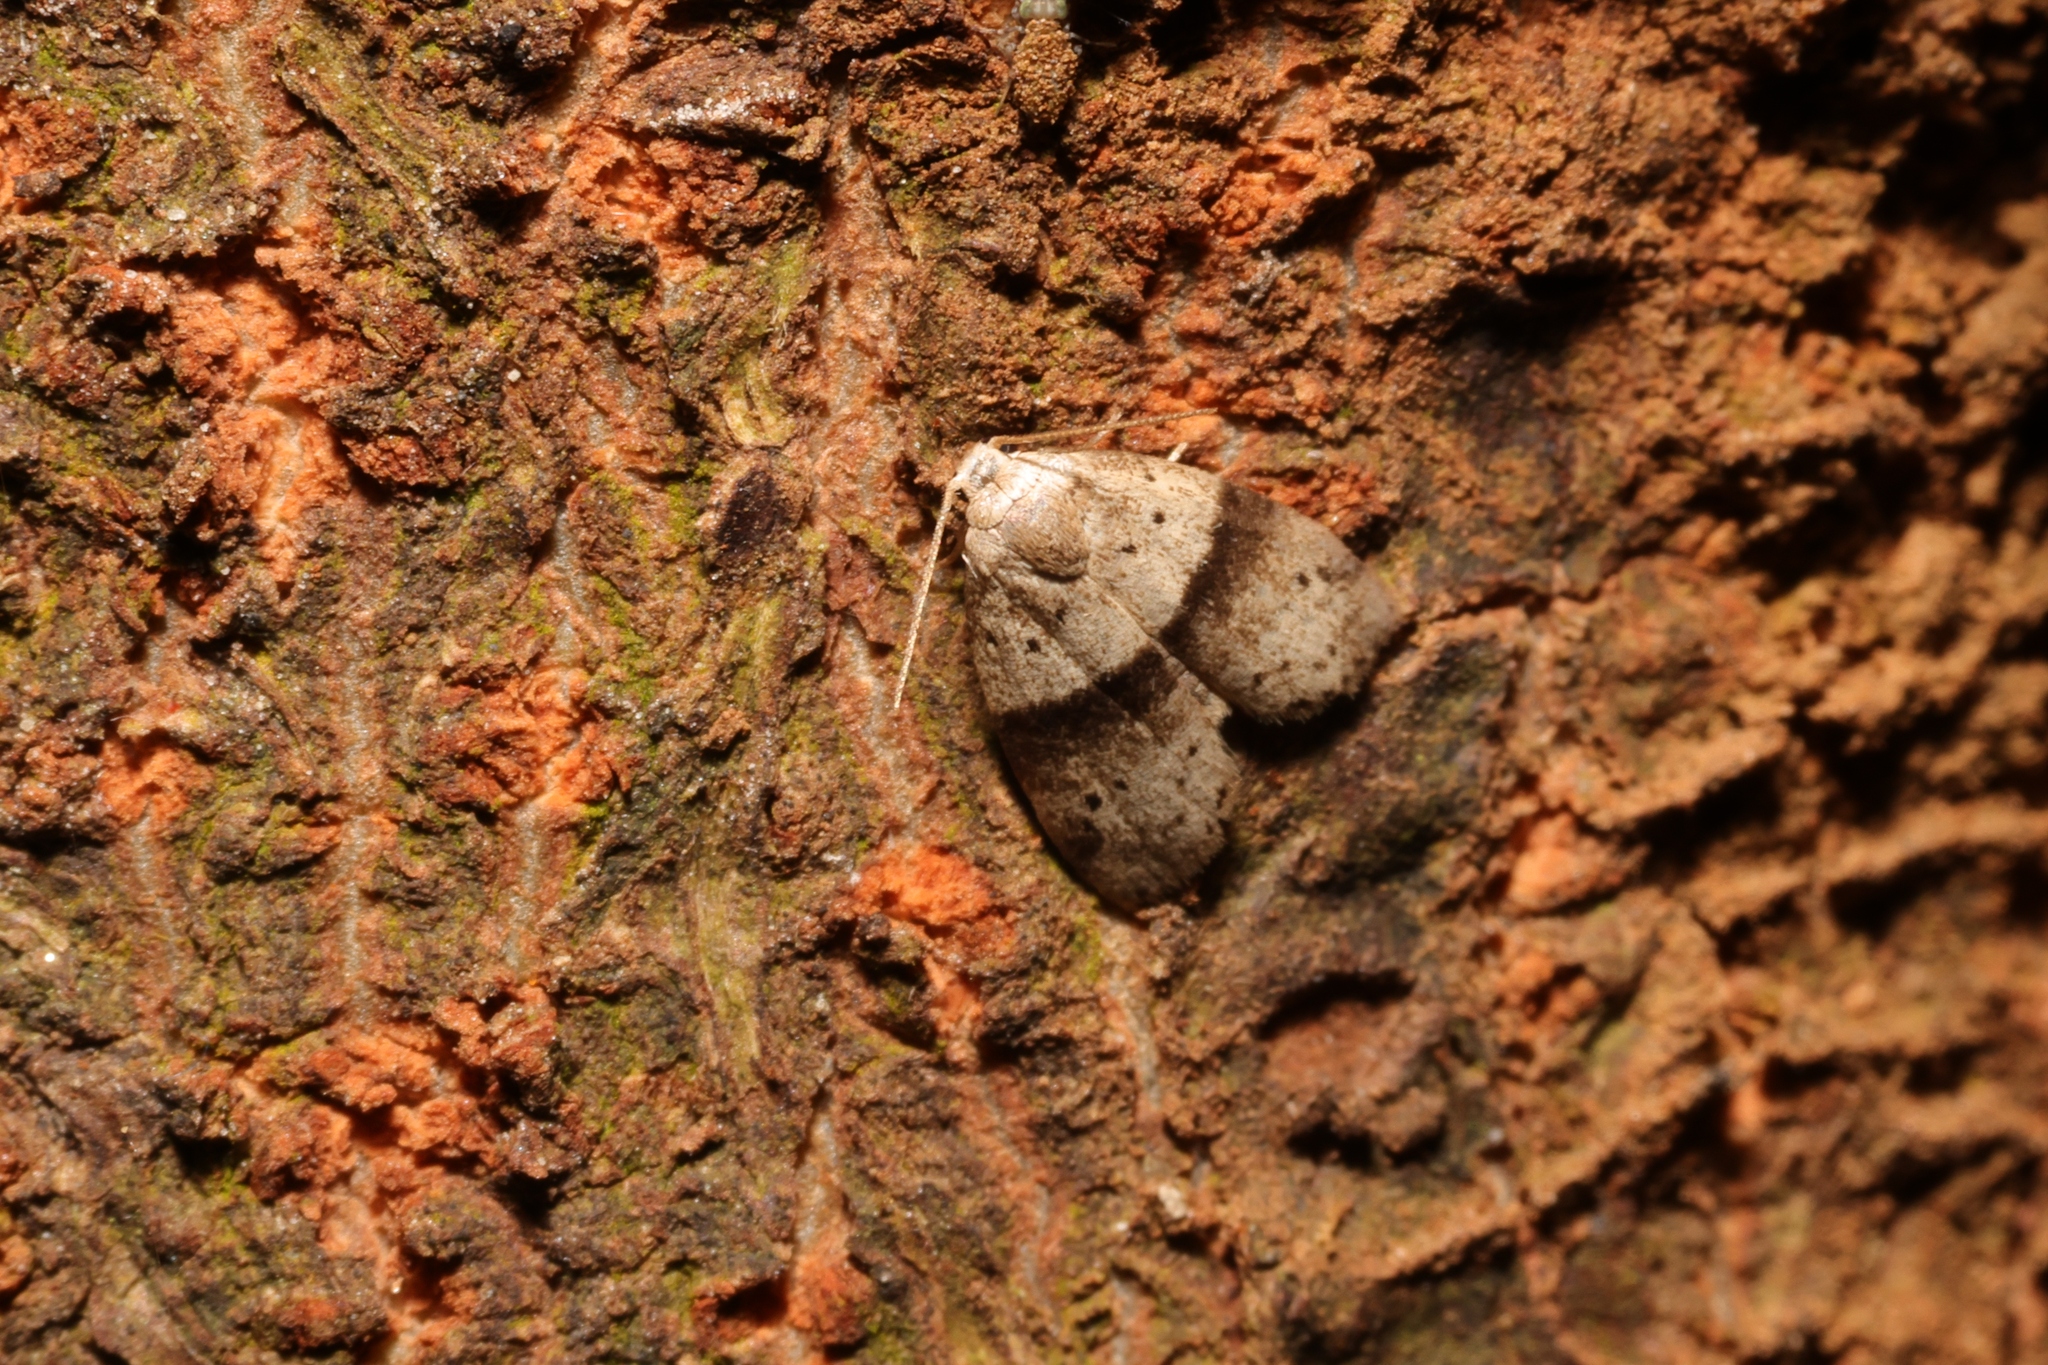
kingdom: Animalia
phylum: Arthropoda
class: Insecta
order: Lepidoptera
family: Erebidae
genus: Stictane
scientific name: Stictane rectilinea
